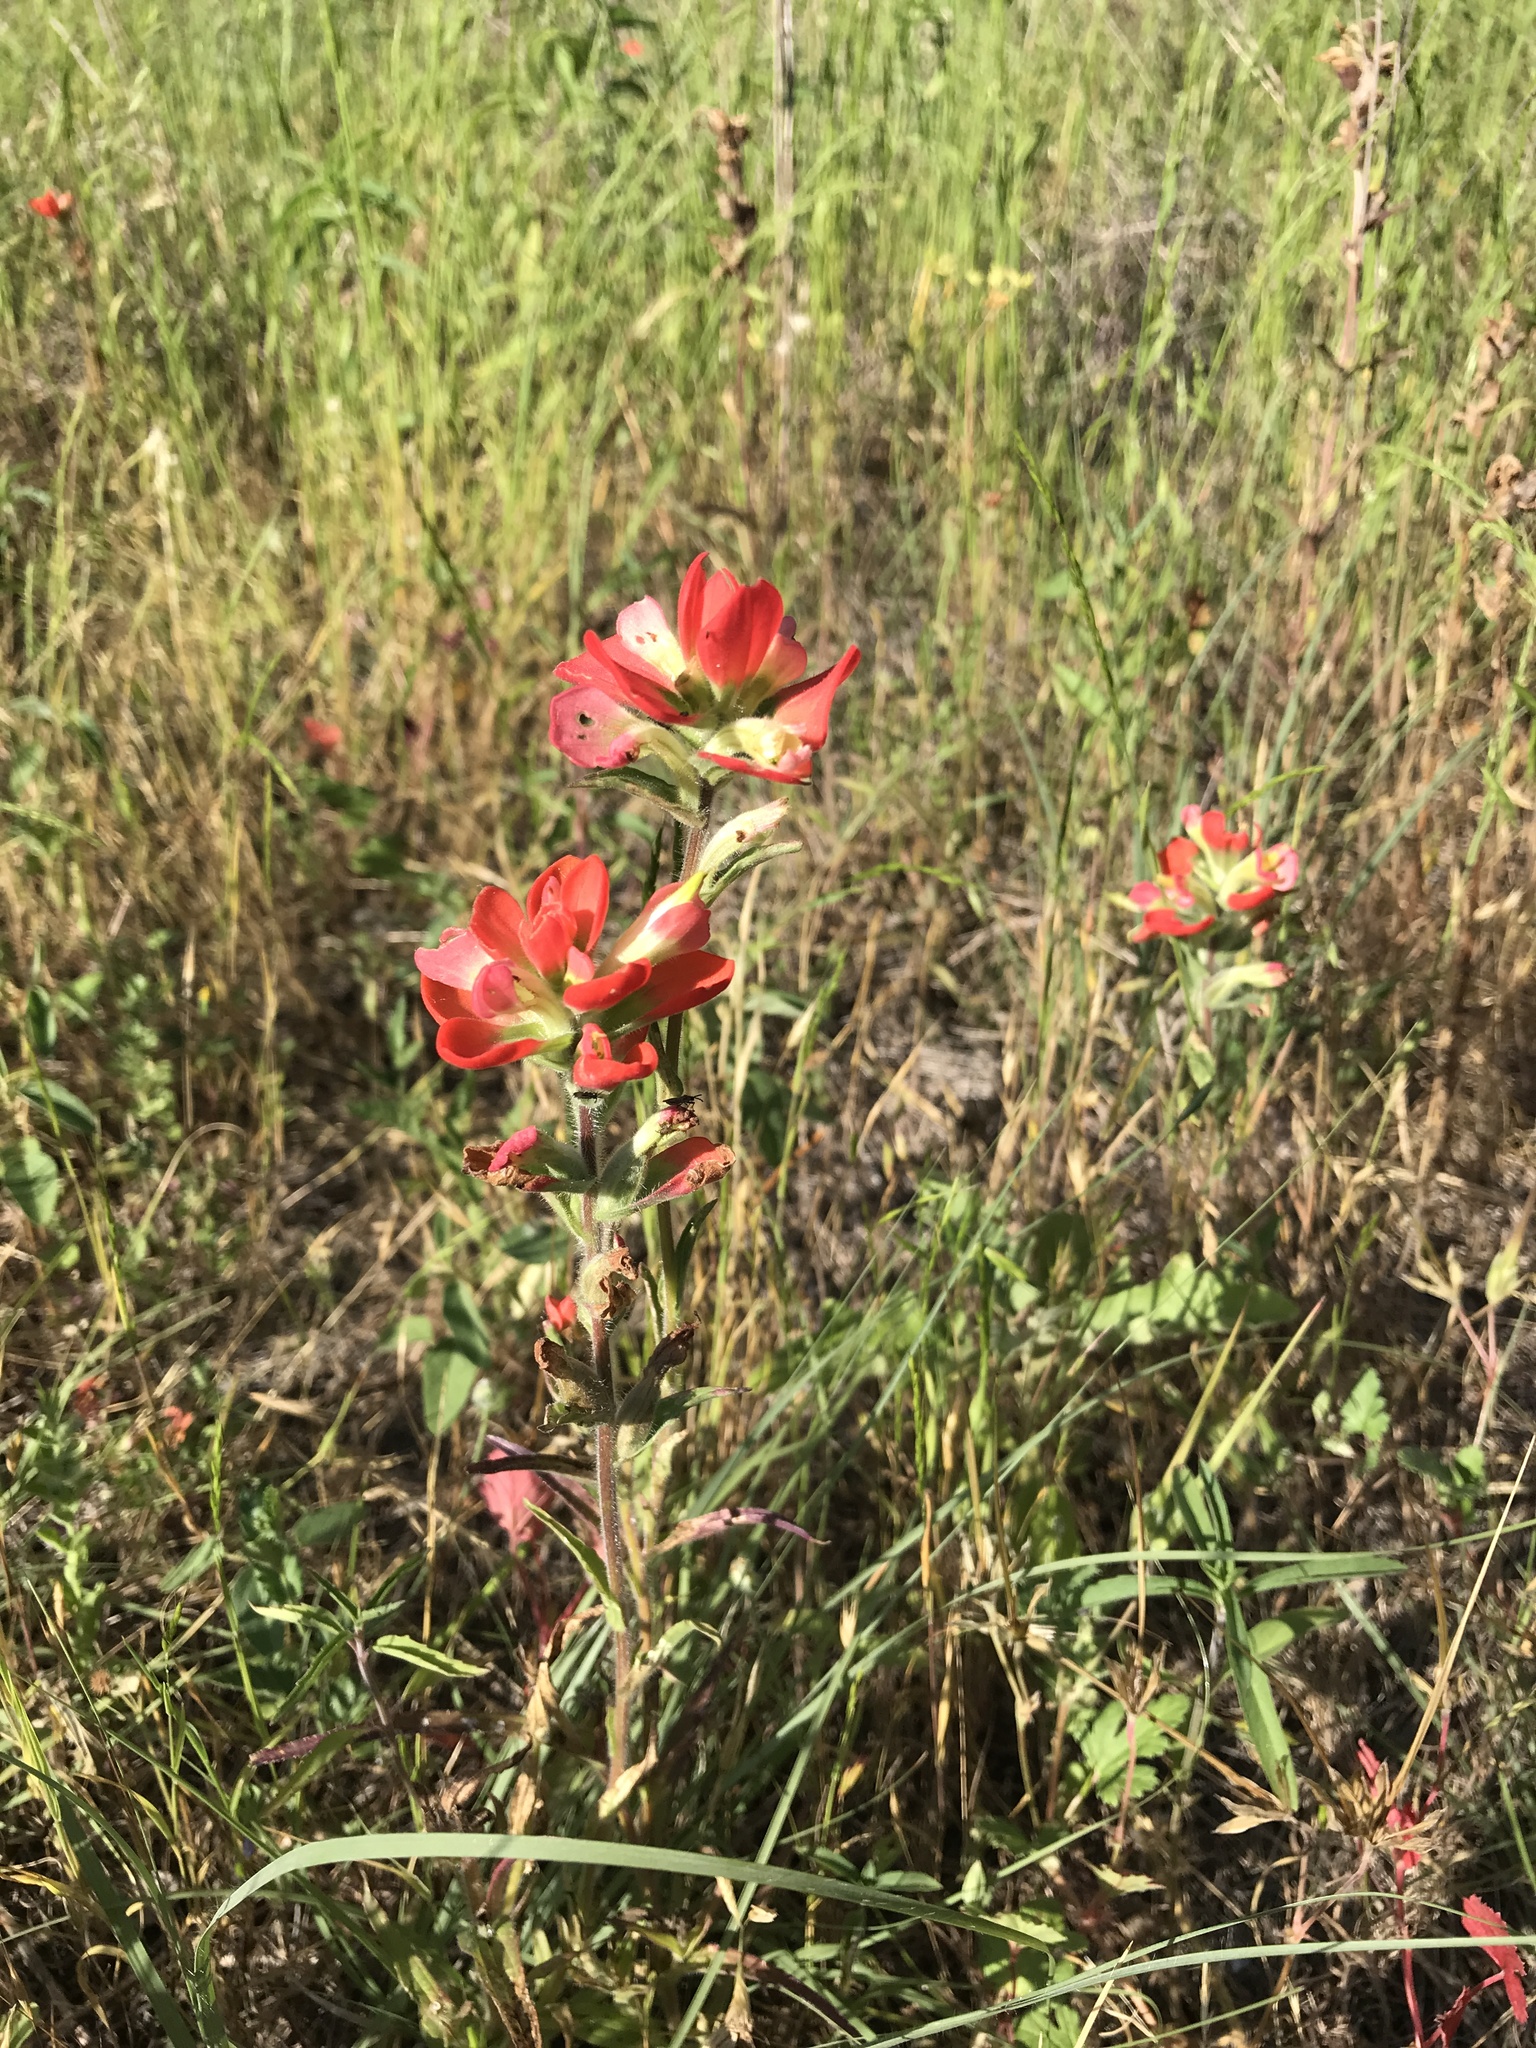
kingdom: Plantae
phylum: Tracheophyta
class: Magnoliopsida
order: Lamiales
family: Orobanchaceae
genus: Castilleja
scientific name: Castilleja indivisa
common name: Texas paintbrush
